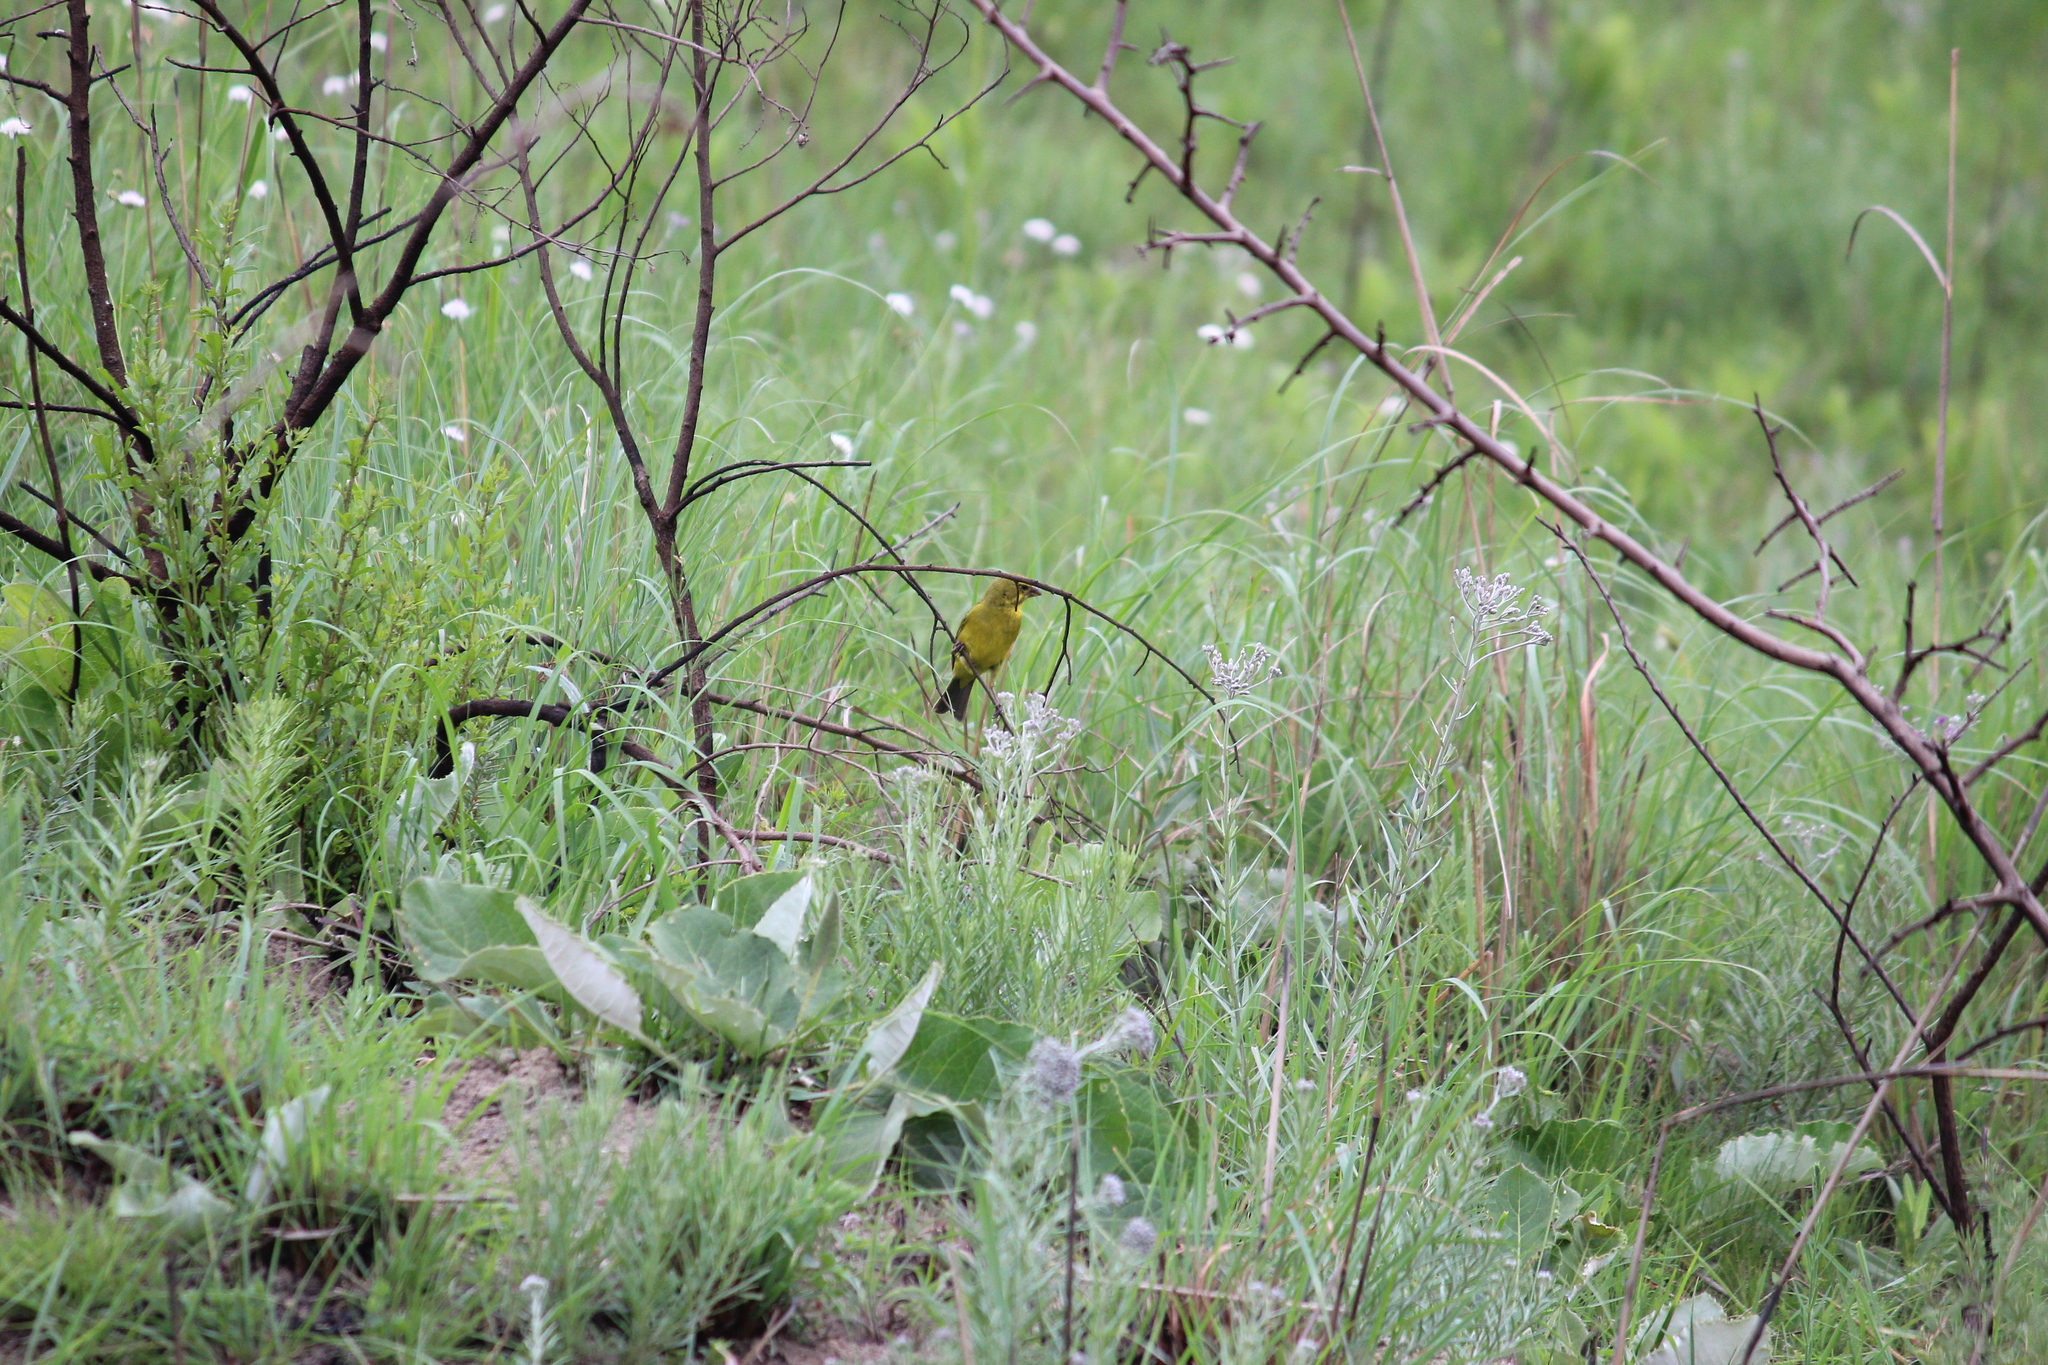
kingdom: Animalia
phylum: Chordata
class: Aves
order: Passeriformes
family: Fringillidae
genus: Crithagra
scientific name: Crithagra sulphurata
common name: Brimstone canary
